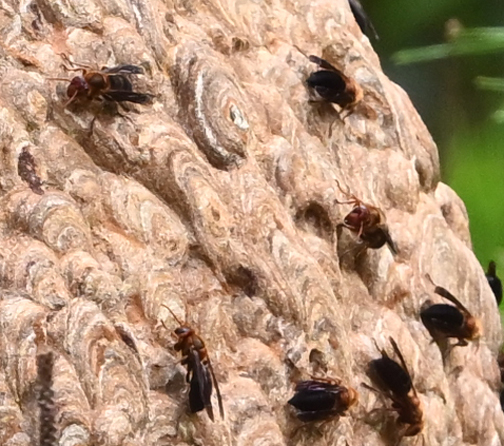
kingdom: Animalia
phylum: Arthropoda
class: Insecta
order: Hymenoptera
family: Vespidae
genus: Vespa
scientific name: Vespa basalis
